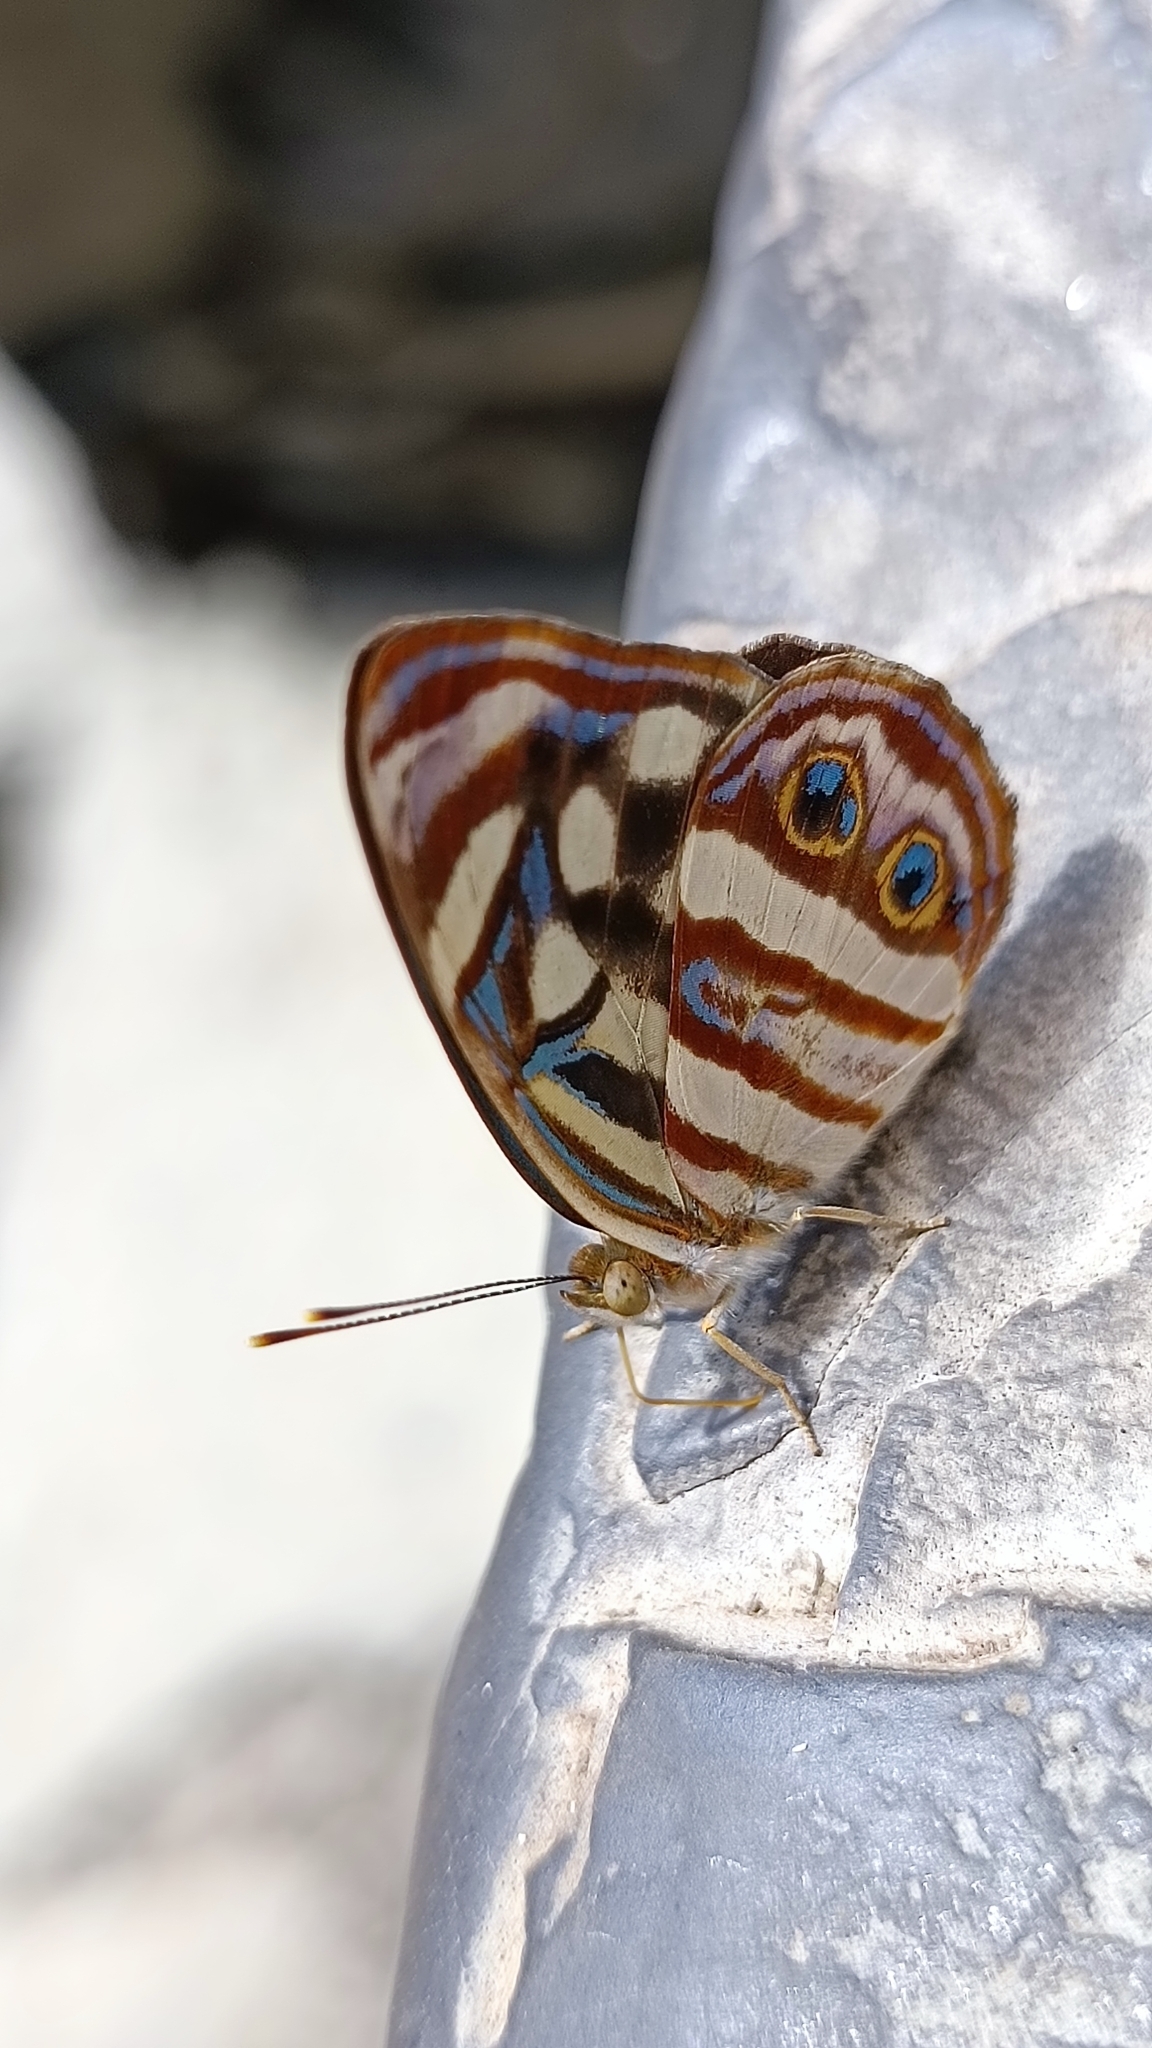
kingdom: Animalia
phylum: Arthropoda
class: Insecta
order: Lepidoptera
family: Nymphalidae
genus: Dynamine
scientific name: Dynamine mylitta
